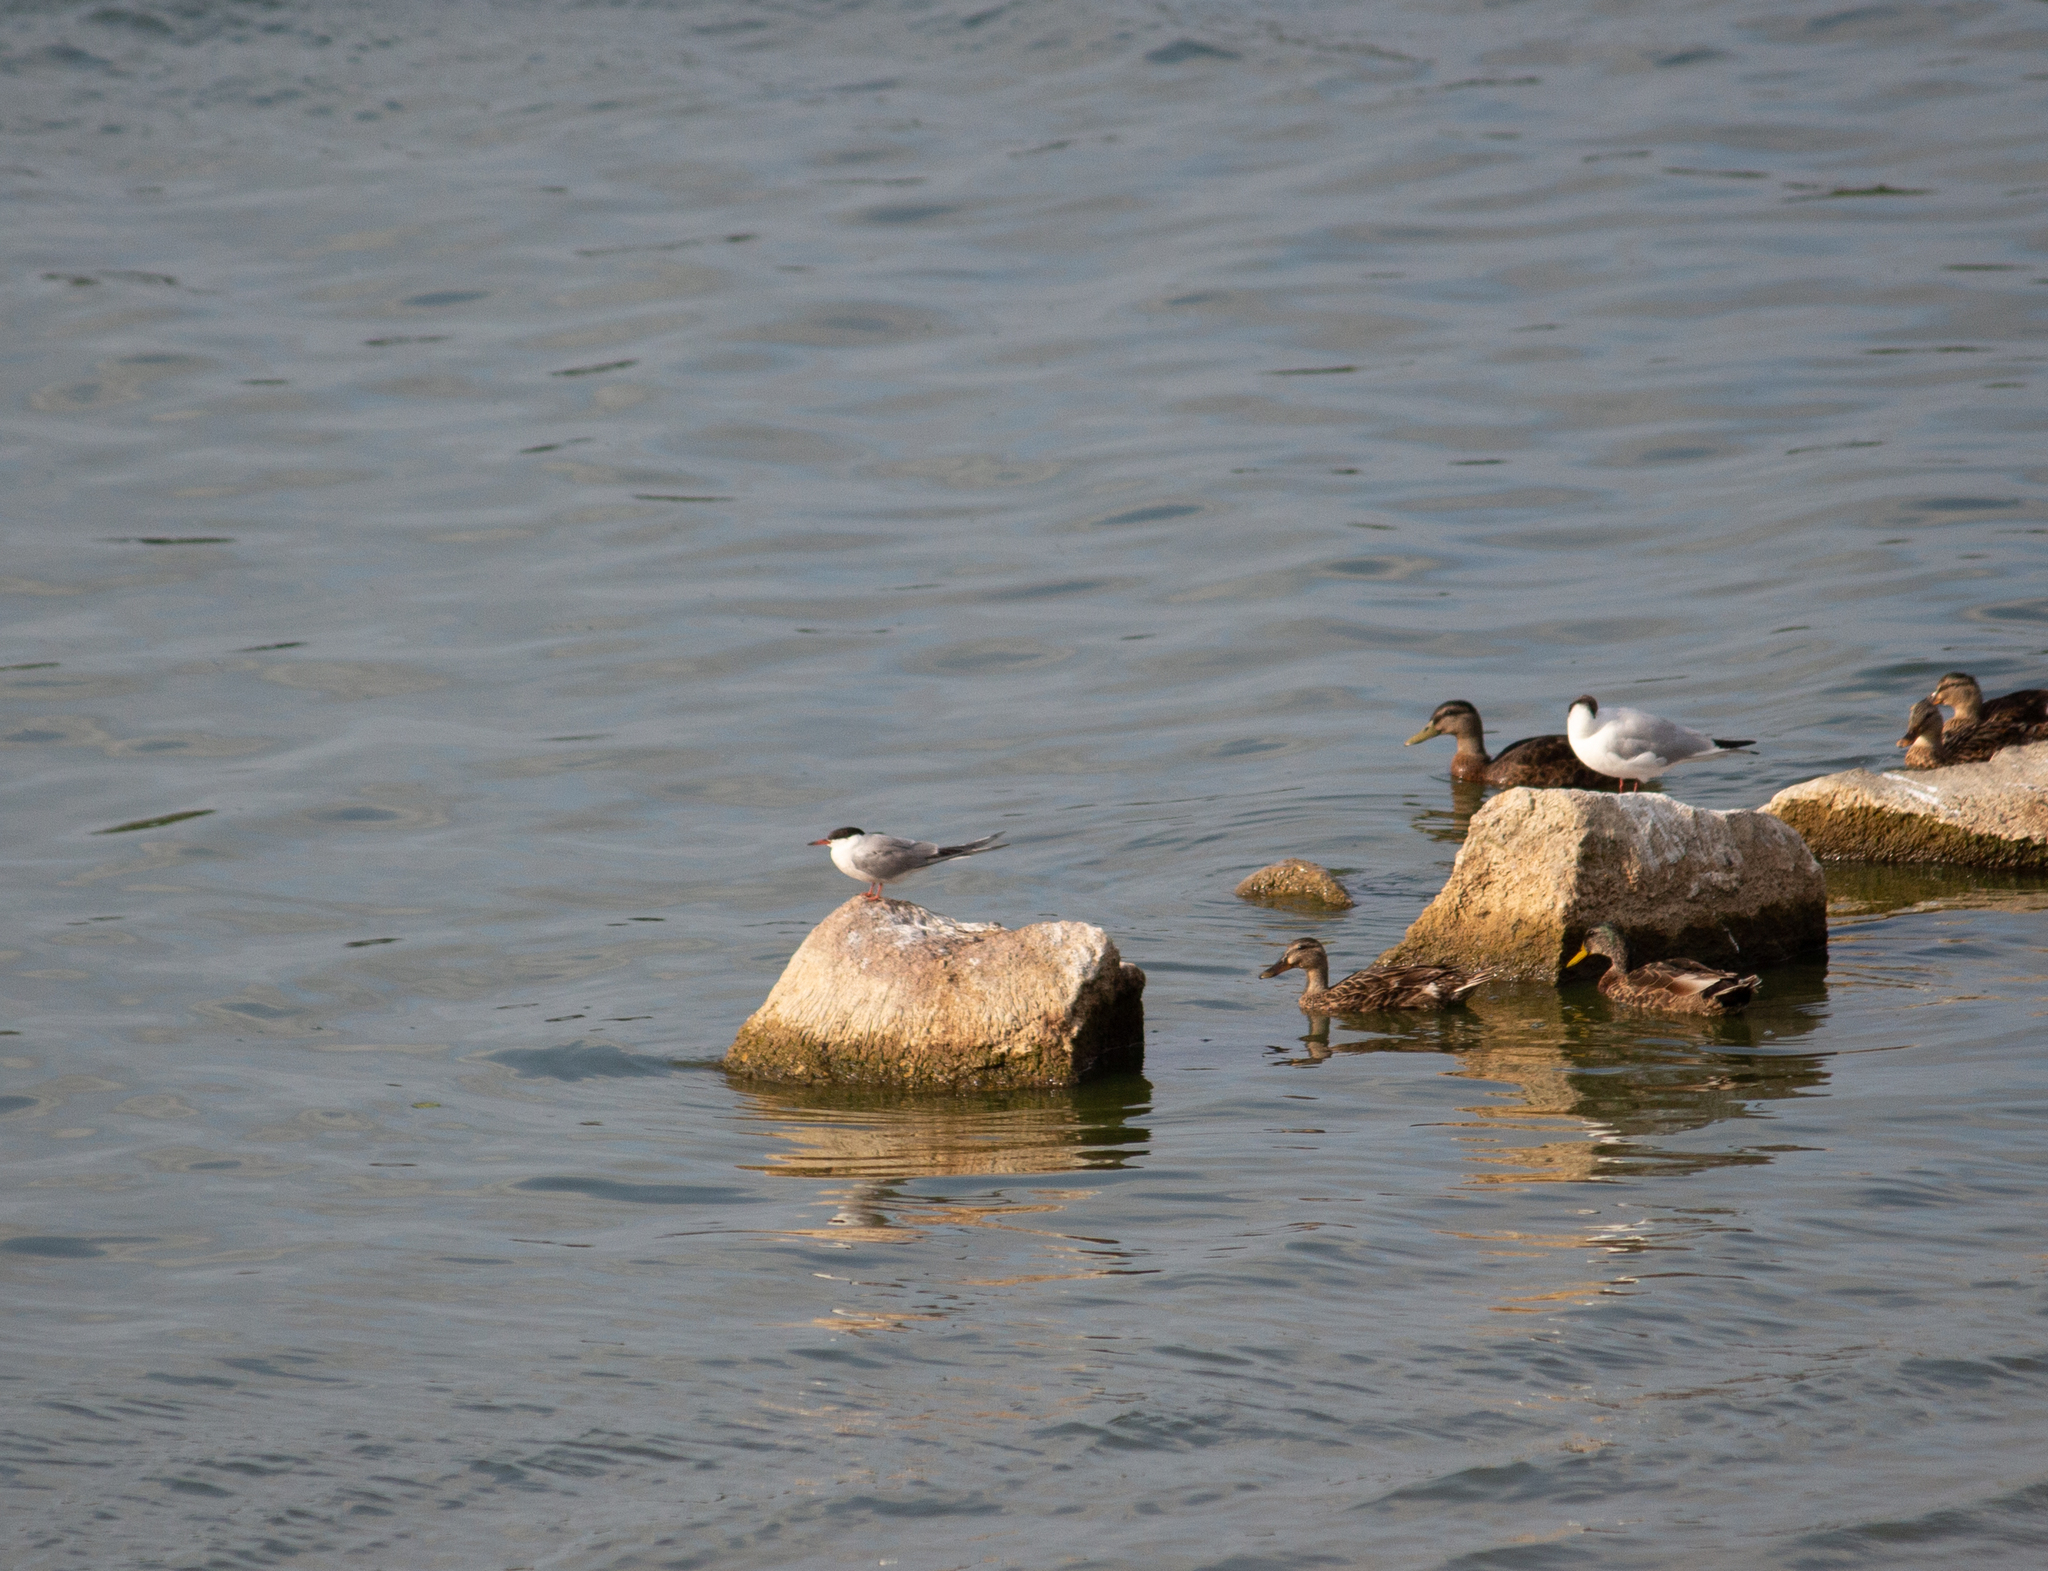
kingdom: Animalia
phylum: Chordata
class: Aves
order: Charadriiformes
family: Laridae
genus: Sterna
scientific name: Sterna hirundo
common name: Common tern
